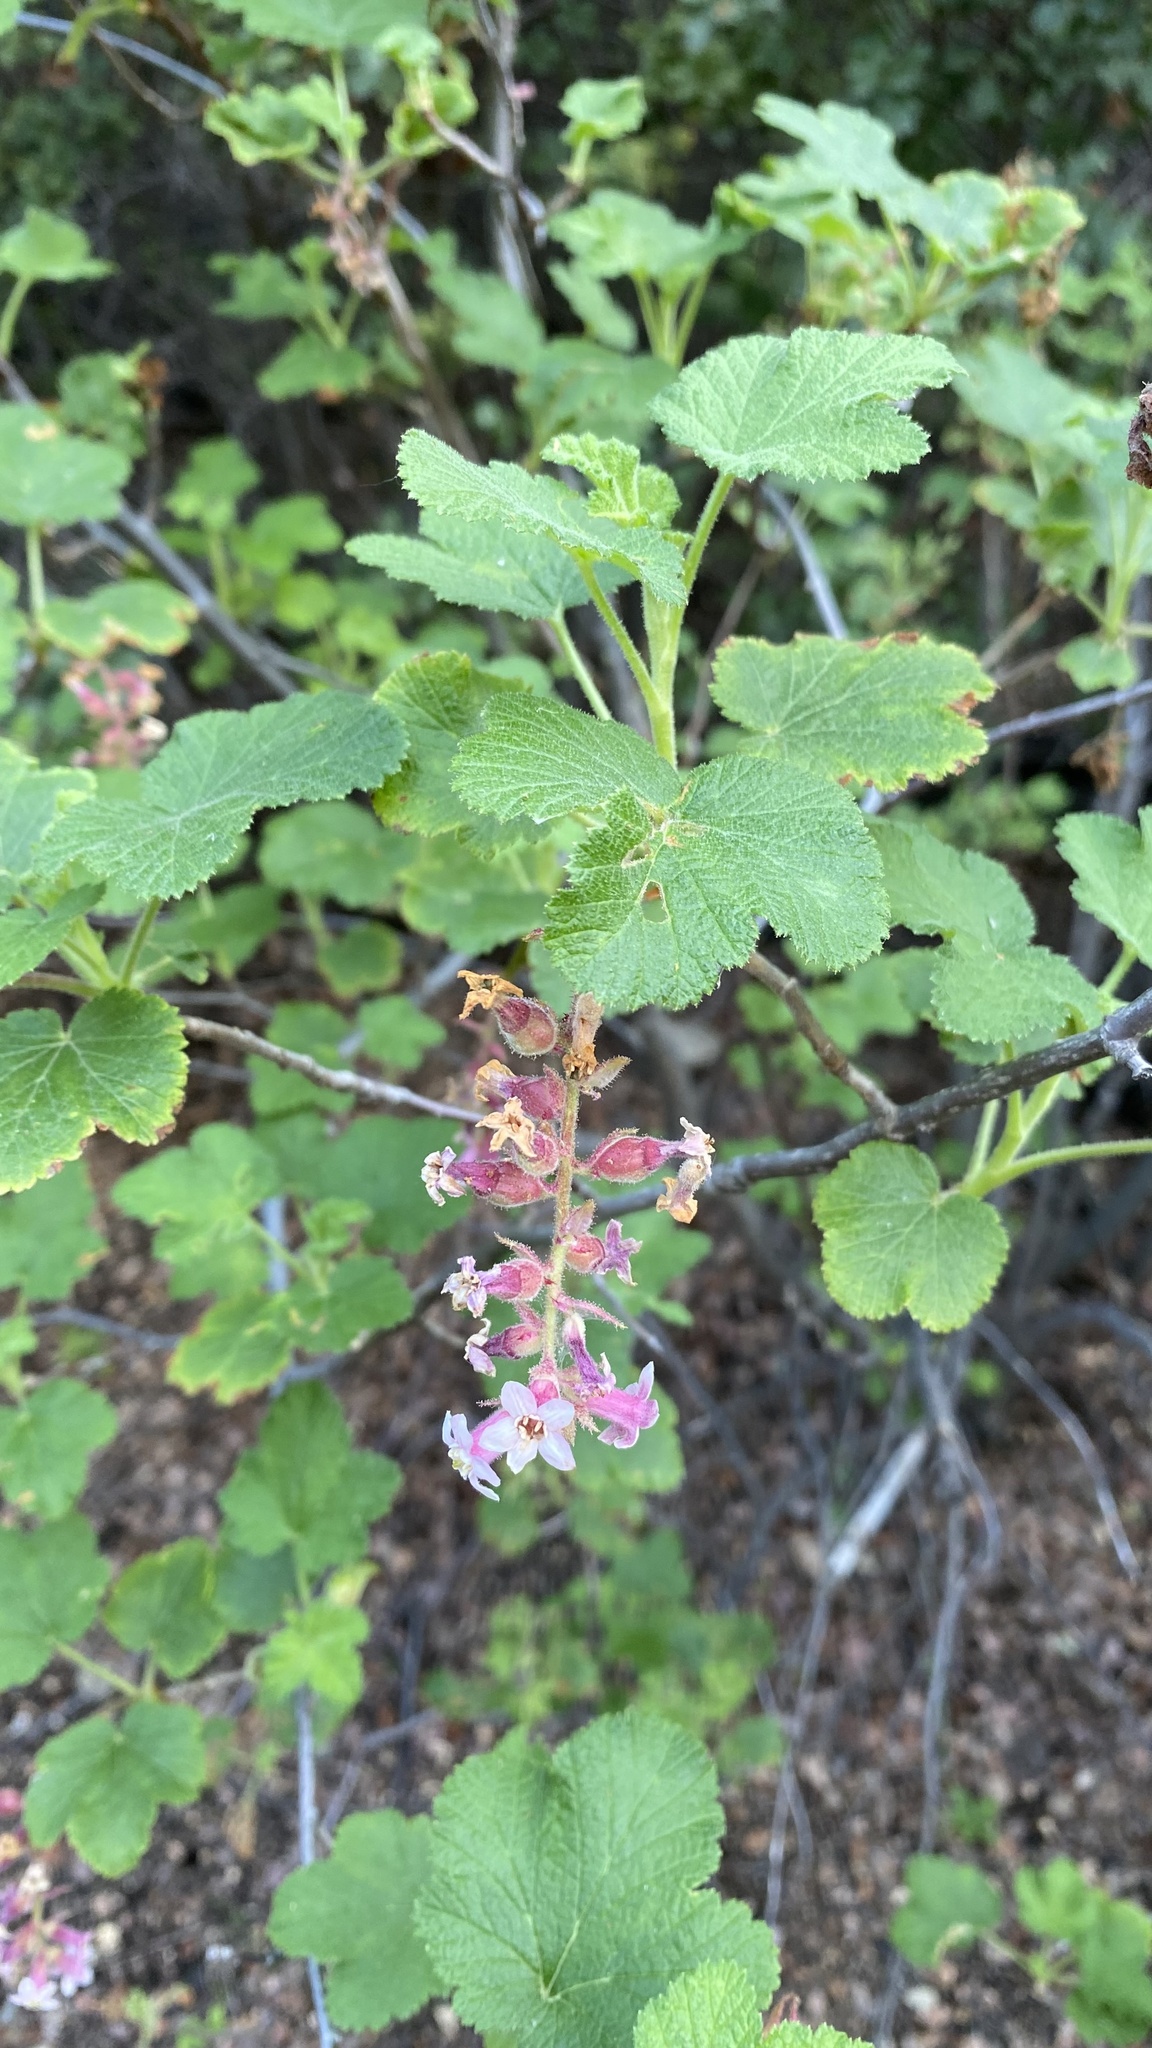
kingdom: Plantae
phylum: Tracheophyta
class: Magnoliopsida
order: Saxifragales
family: Grossulariaceae
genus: Ribes
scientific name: Ribes malvaceum
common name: Chaparral currant
